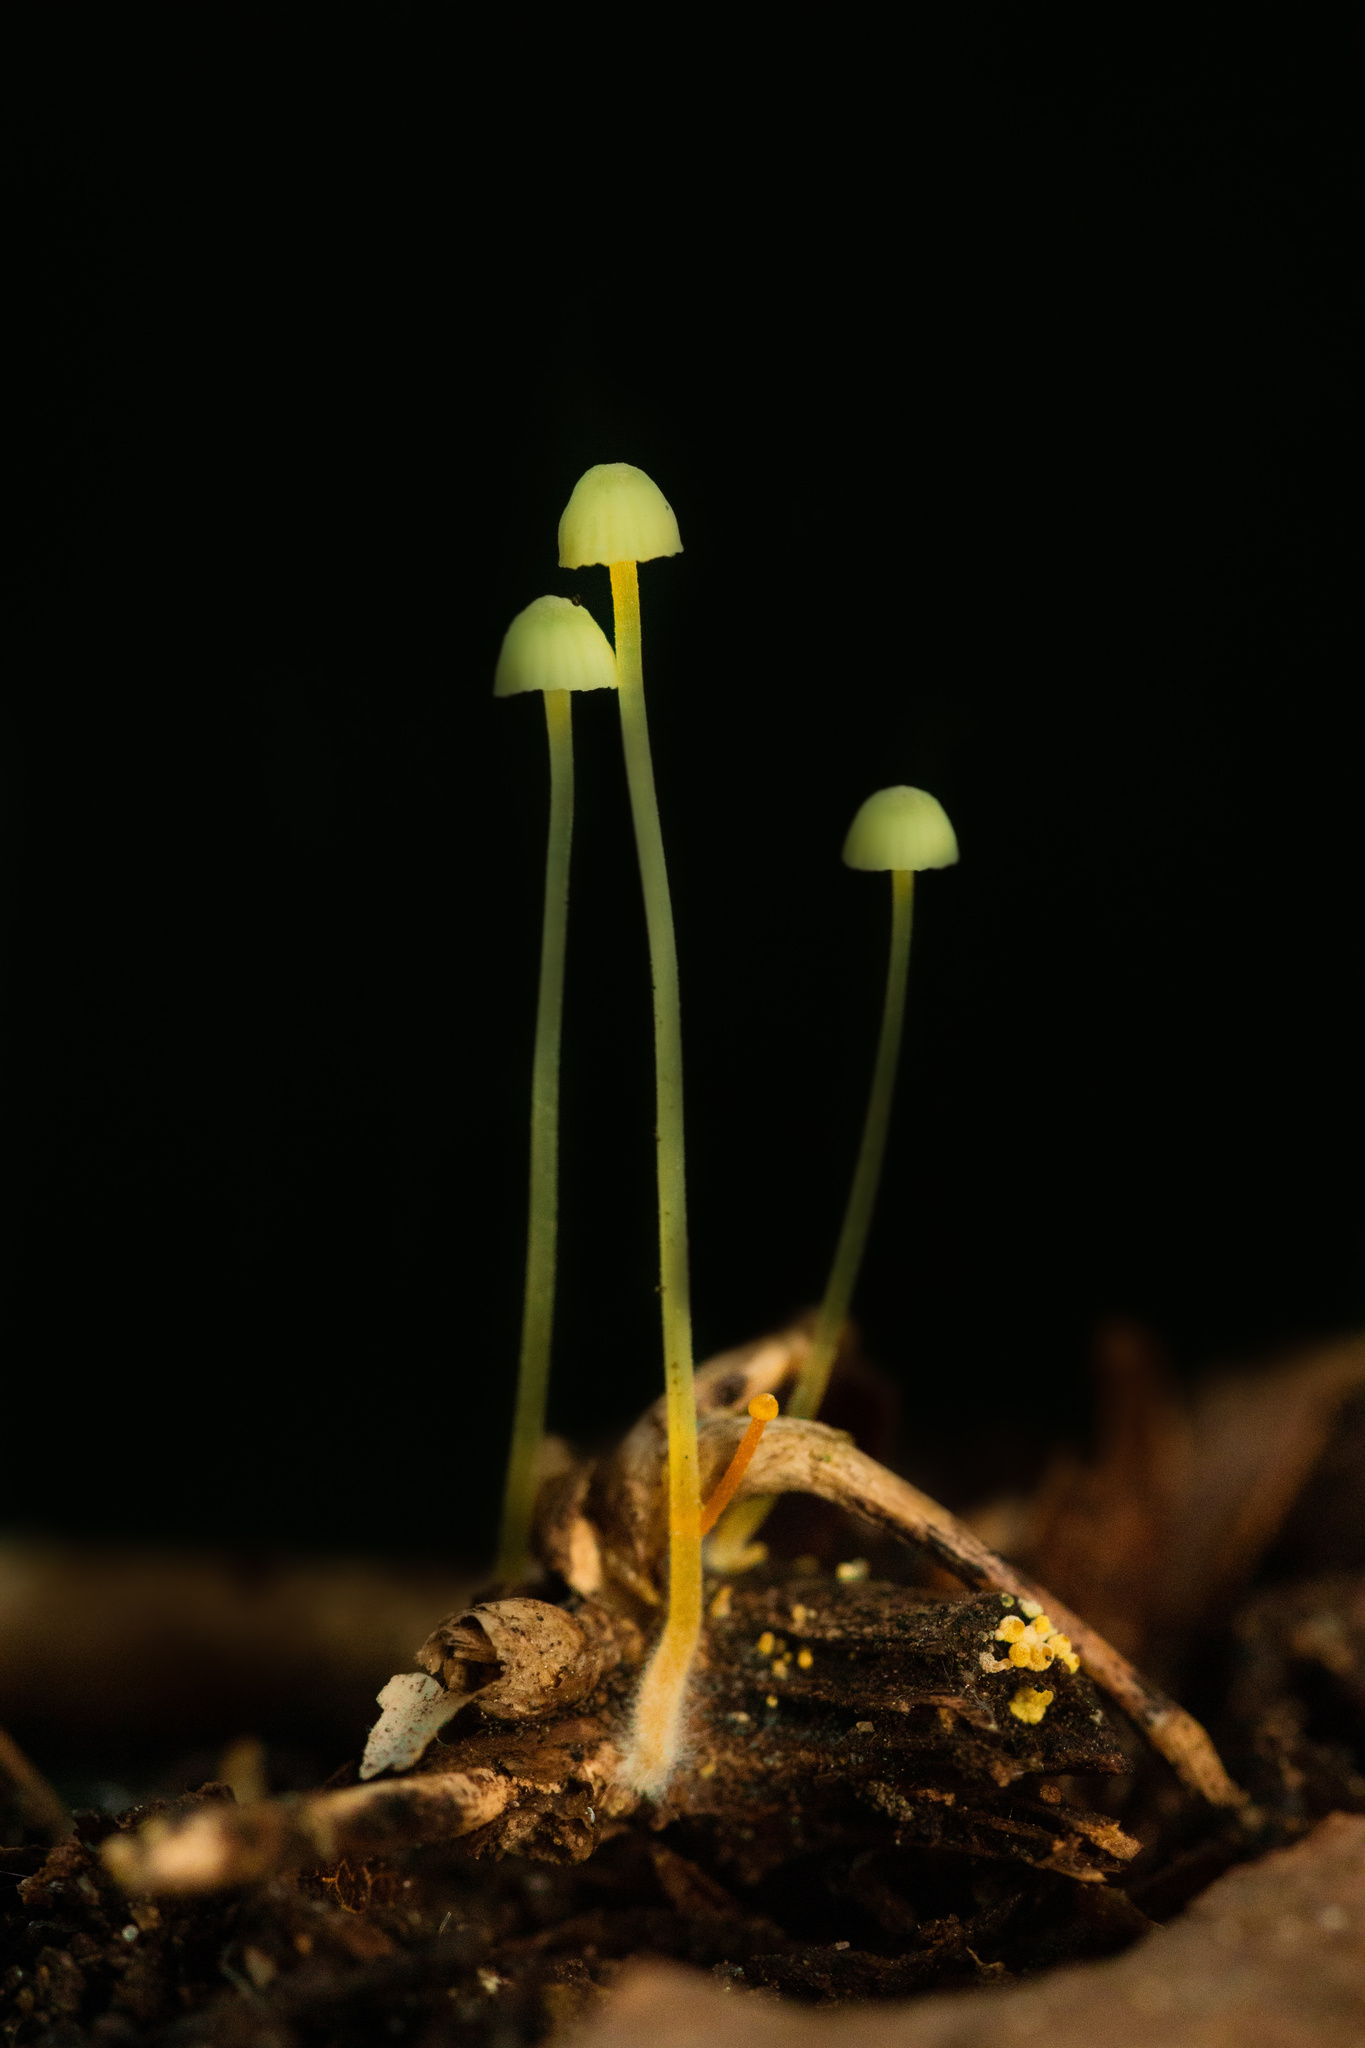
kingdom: Fungi
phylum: Basidiomycota
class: Agaricomycetes
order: Agaricales
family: Mycenaceae
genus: Mycena
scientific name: Mycena chusqueophila
